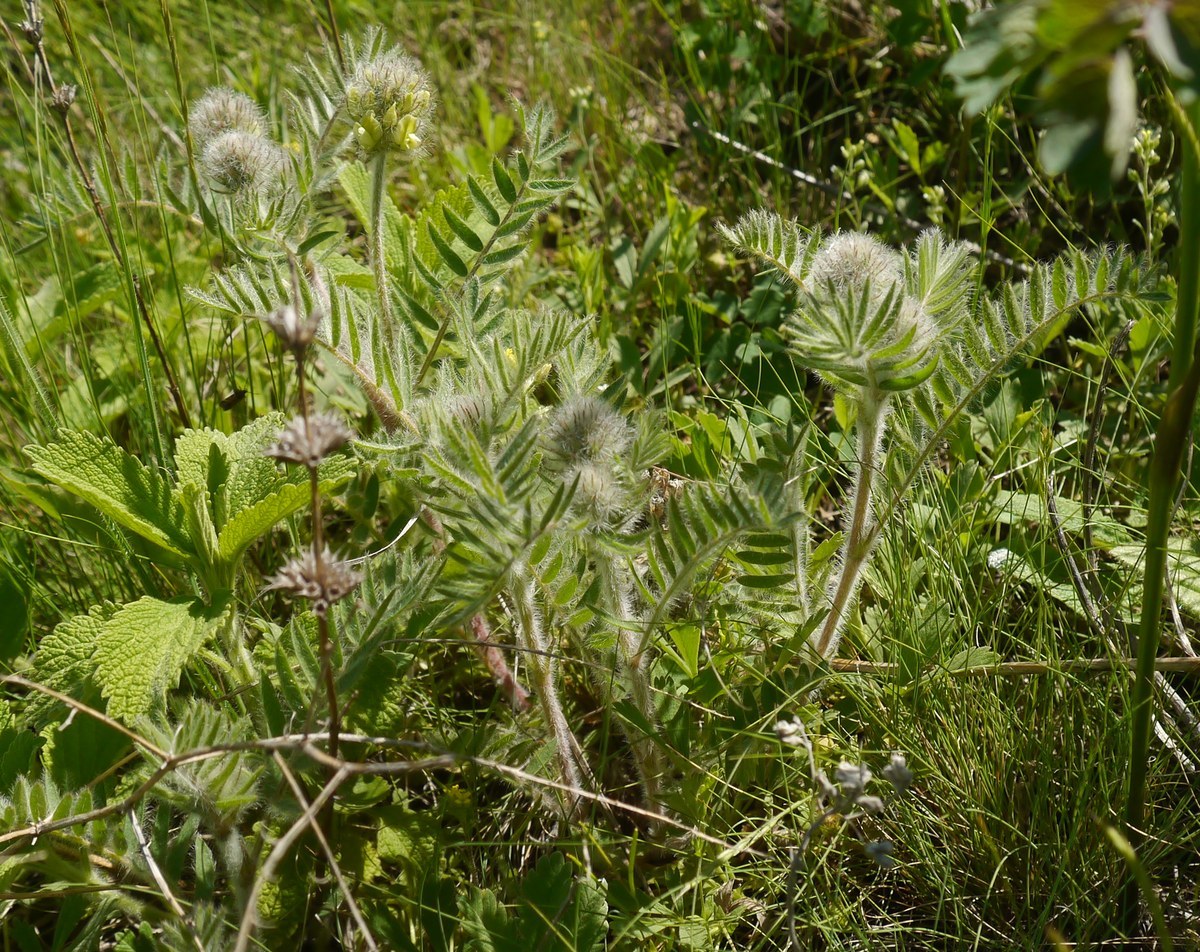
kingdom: Plantae
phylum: Tracheophyta
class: Magnoliopsida
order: Fabales
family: Fabaceae
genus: Oxytropis
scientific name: Oxytropis pilosa
